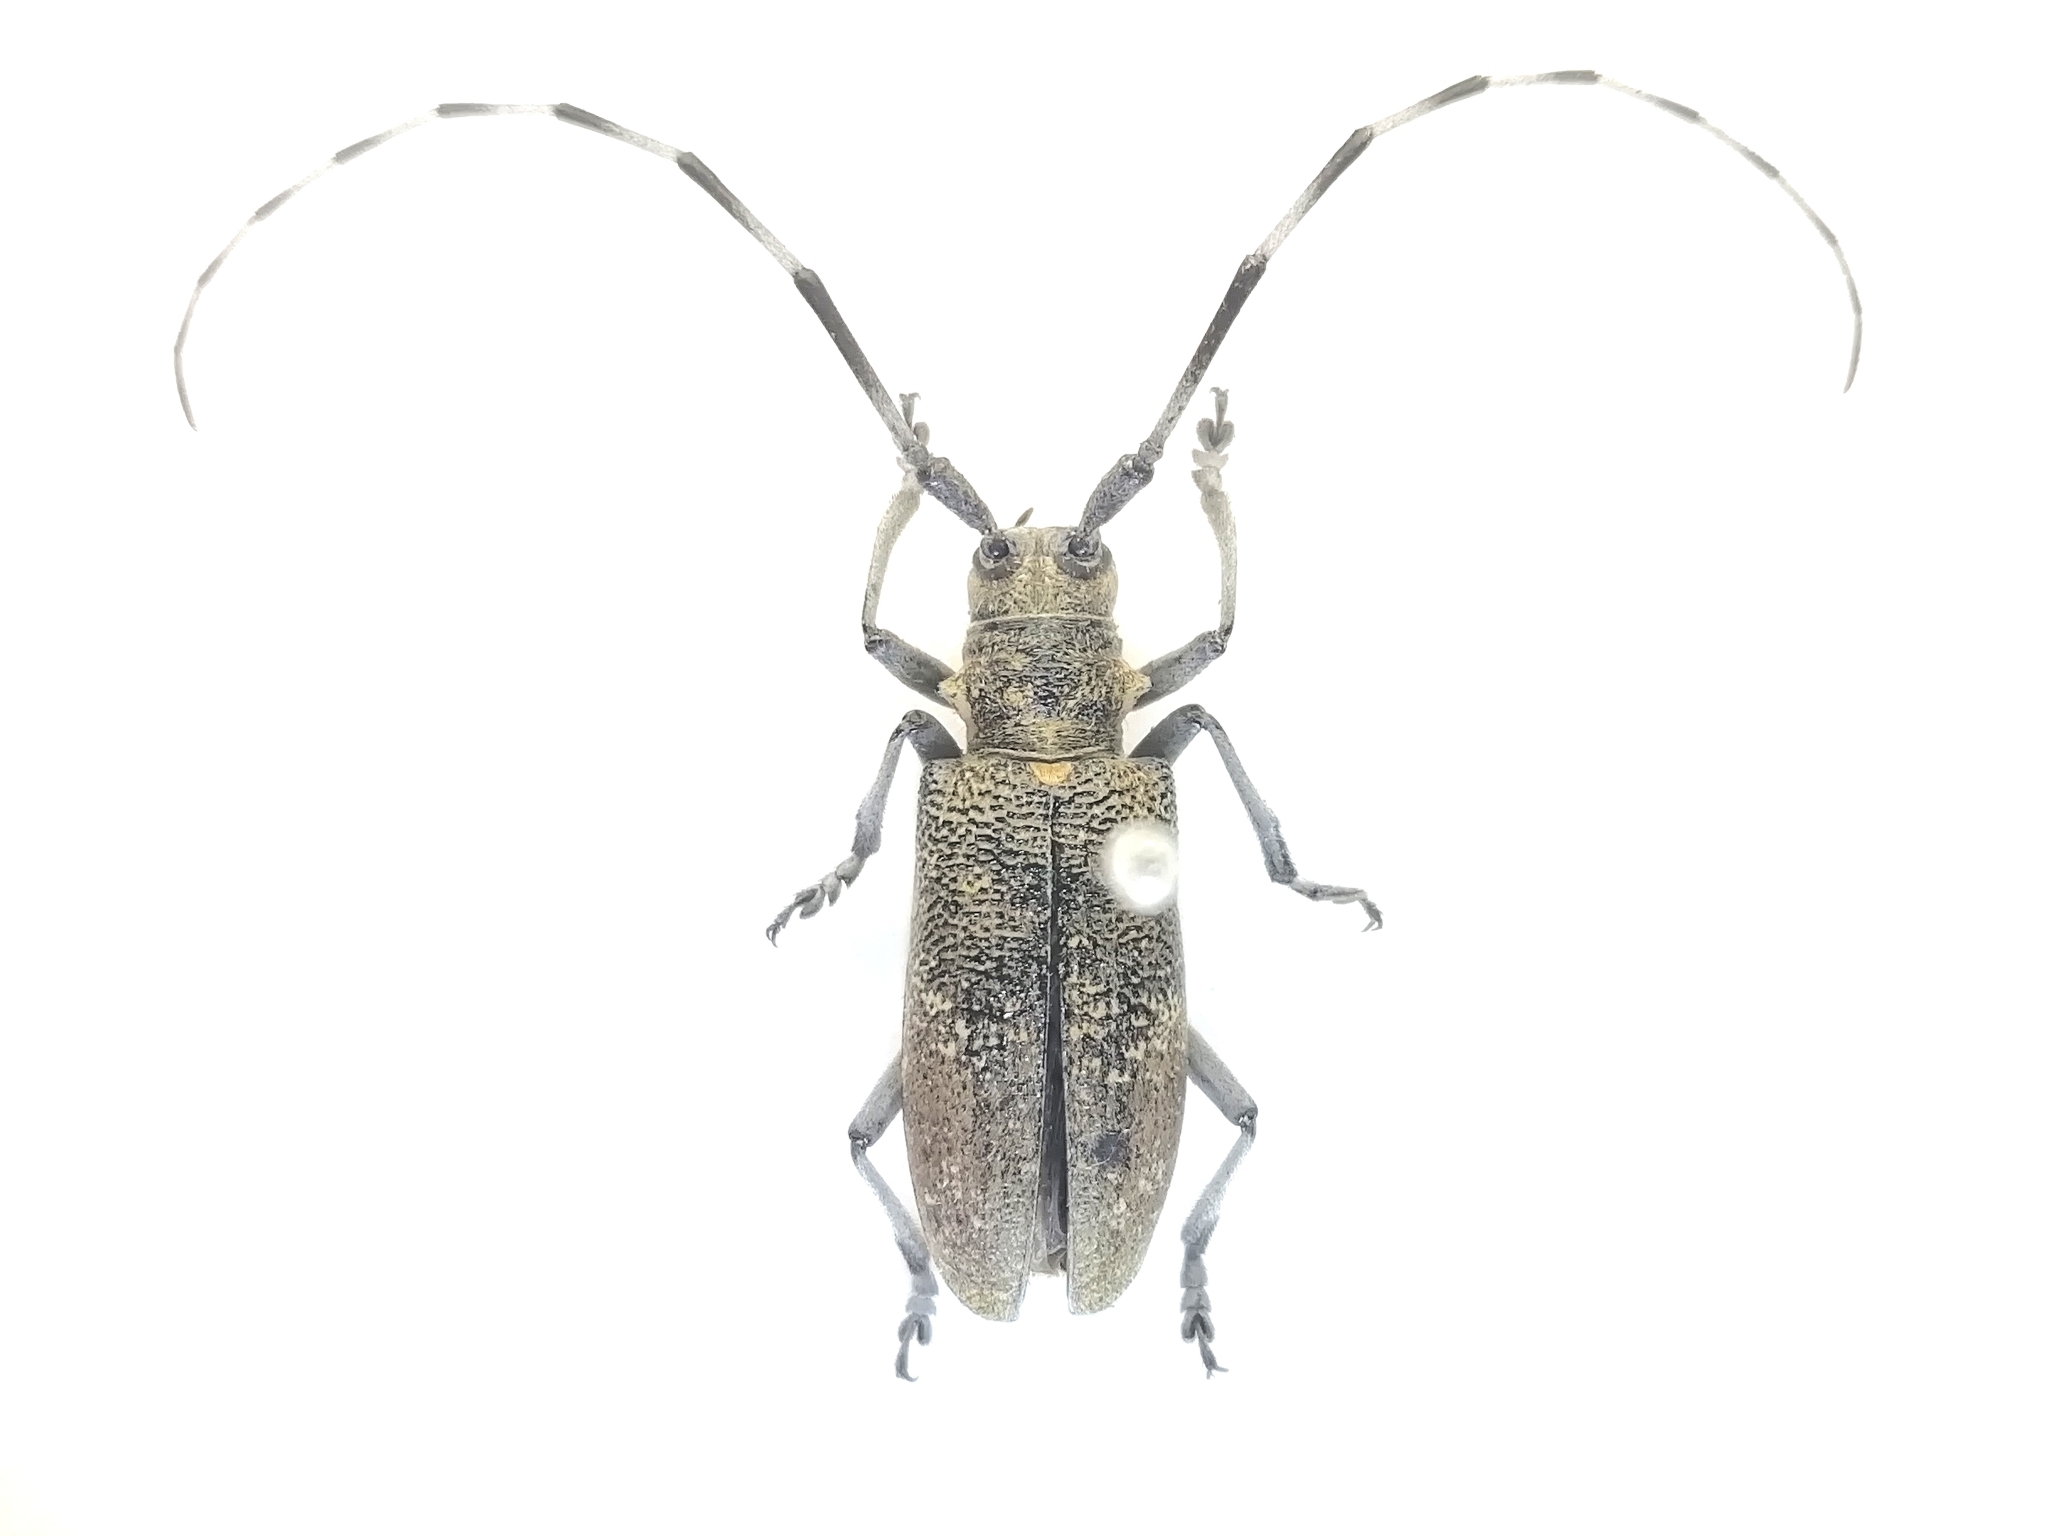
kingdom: Animalia
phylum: Arthropoda
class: Insecta
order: Coleoptera
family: Cerambycidae
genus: Monochamus
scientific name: Monochamus galloprovincialis
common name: Pine sawyer
